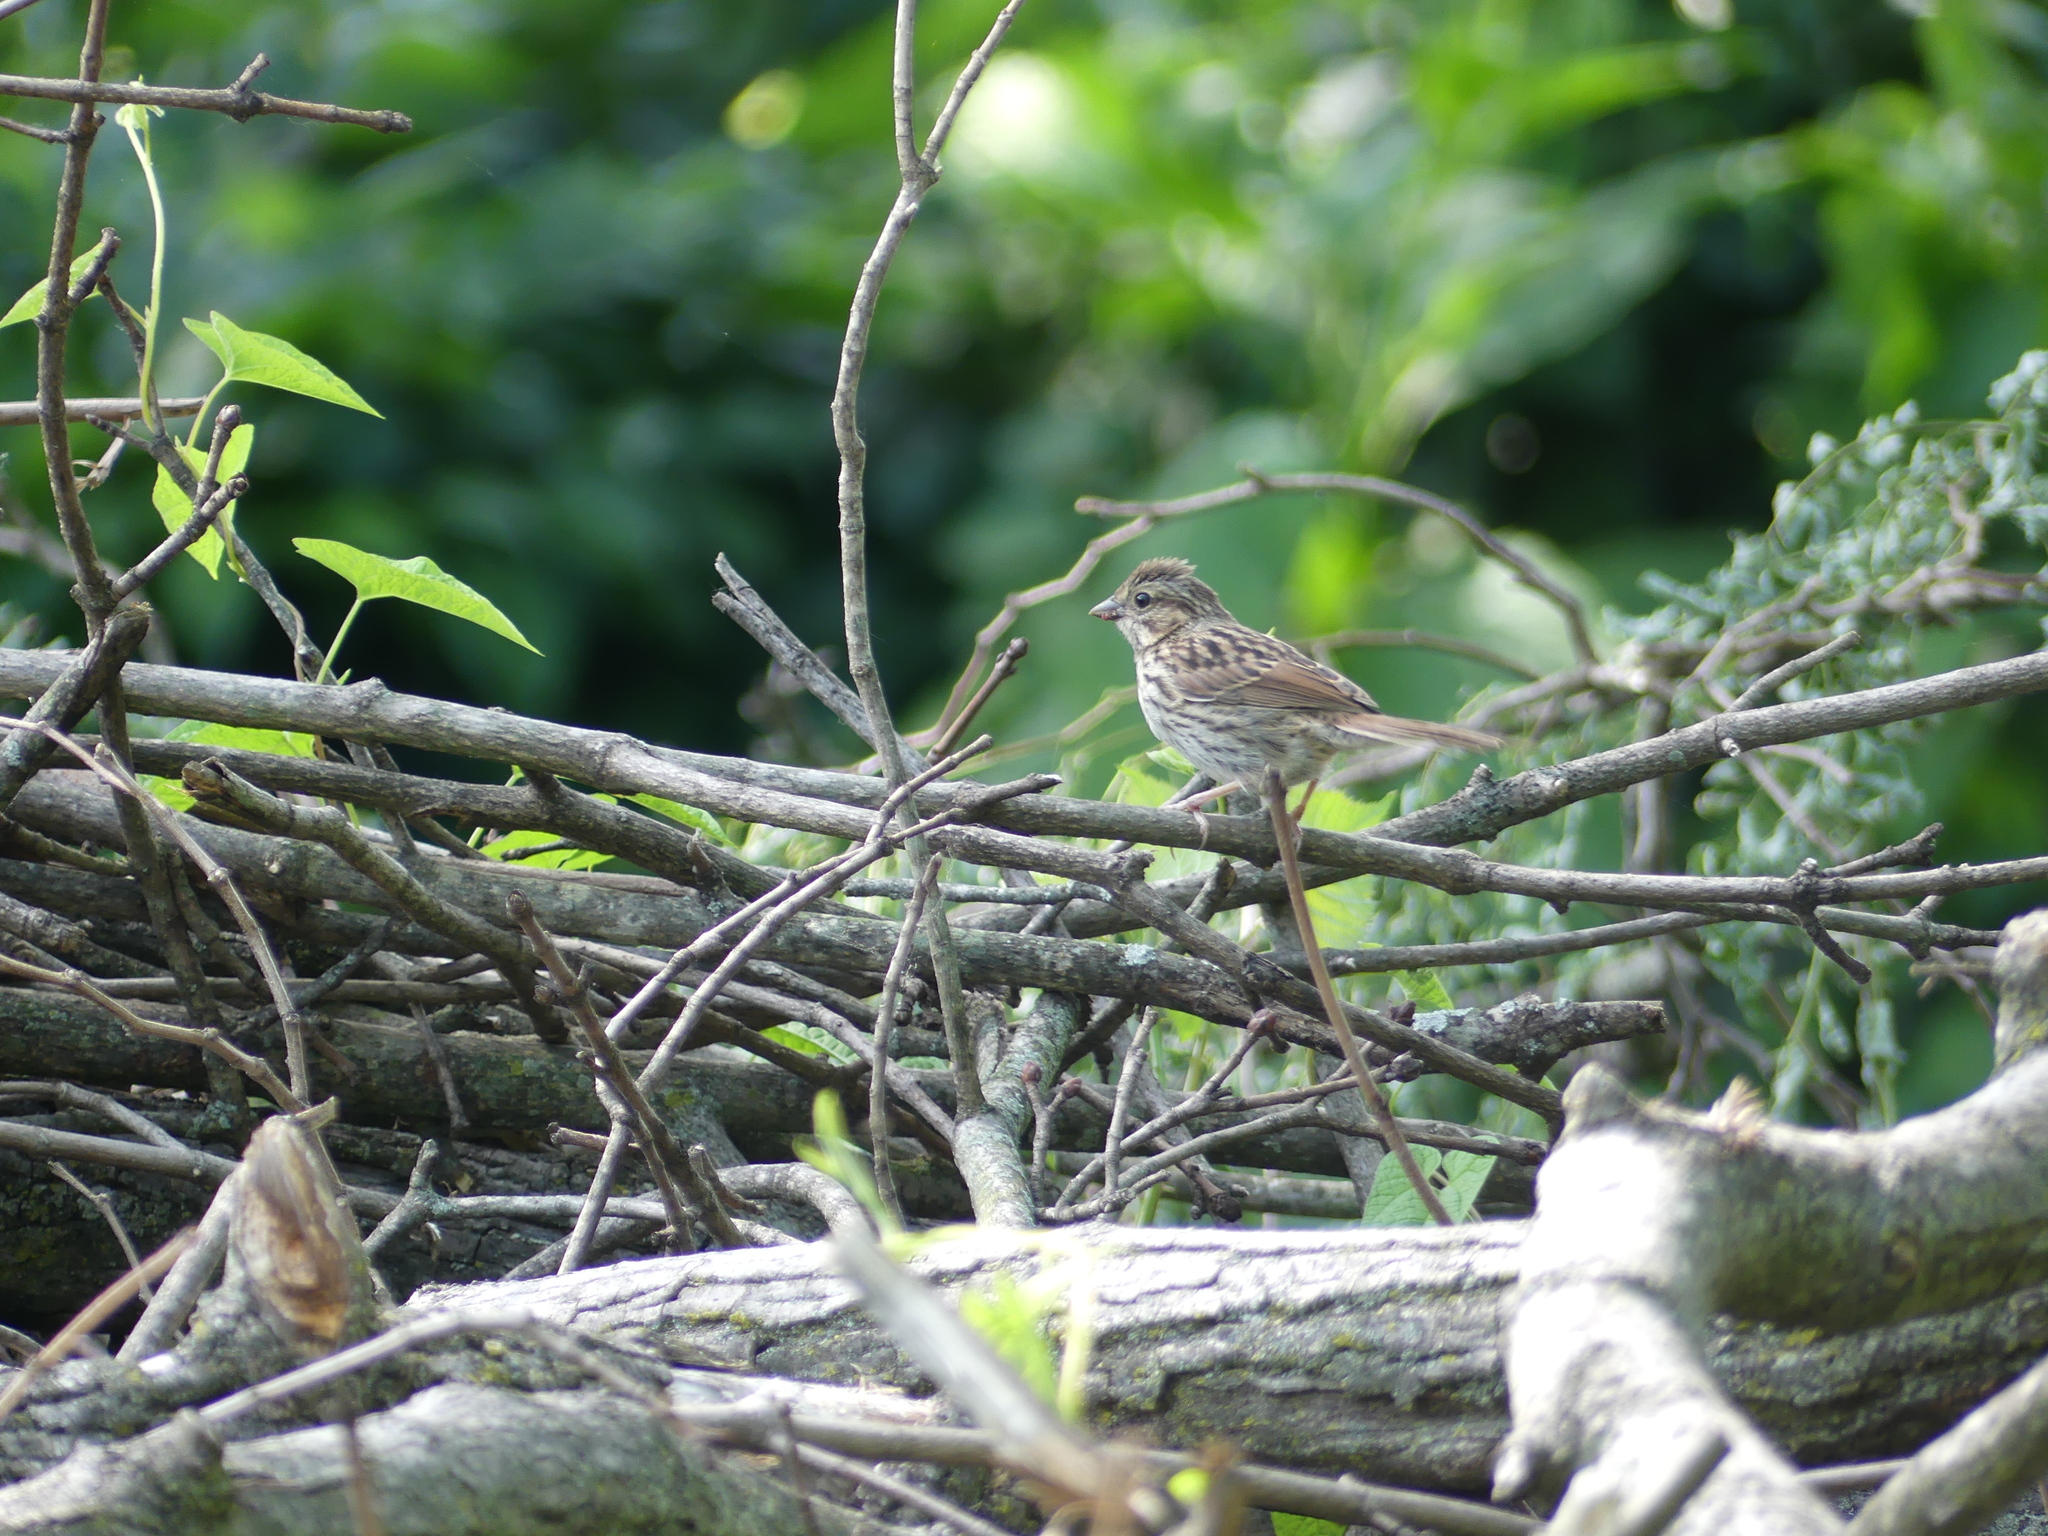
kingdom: Animalia
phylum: Chordata
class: Aves
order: Passeriformes
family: Passerellidae
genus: Melospiza
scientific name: Melospiza melodia
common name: Song sparrow
